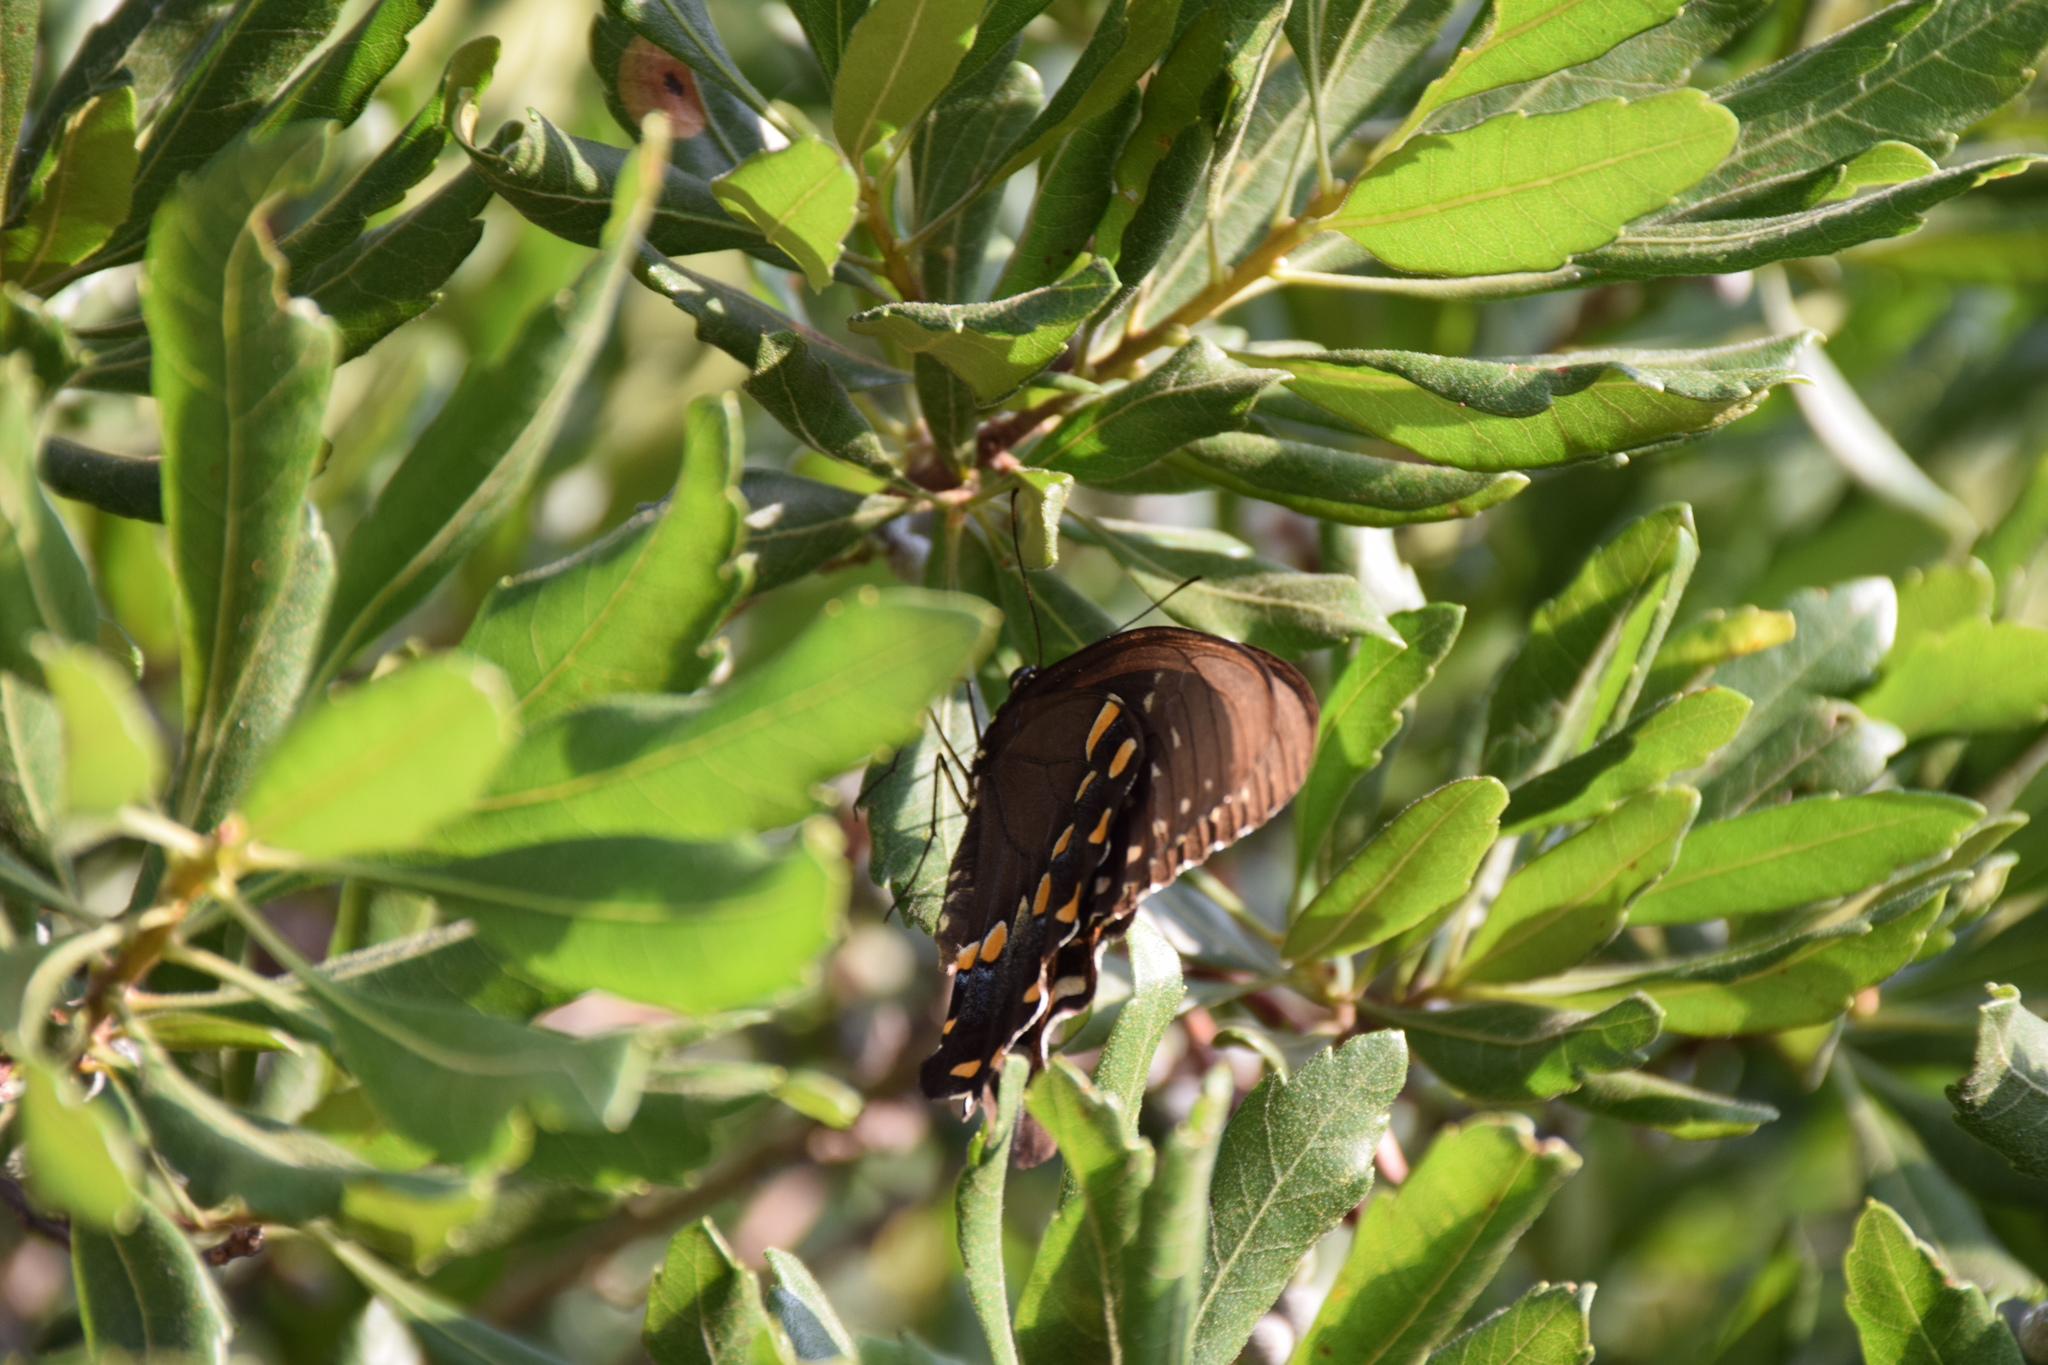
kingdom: Animalia
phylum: Arthropoda
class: Insecta
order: Lepidoptera
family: Papilionidae
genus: Papilio
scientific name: Papilio troilus
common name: Spicebush swallowtail
